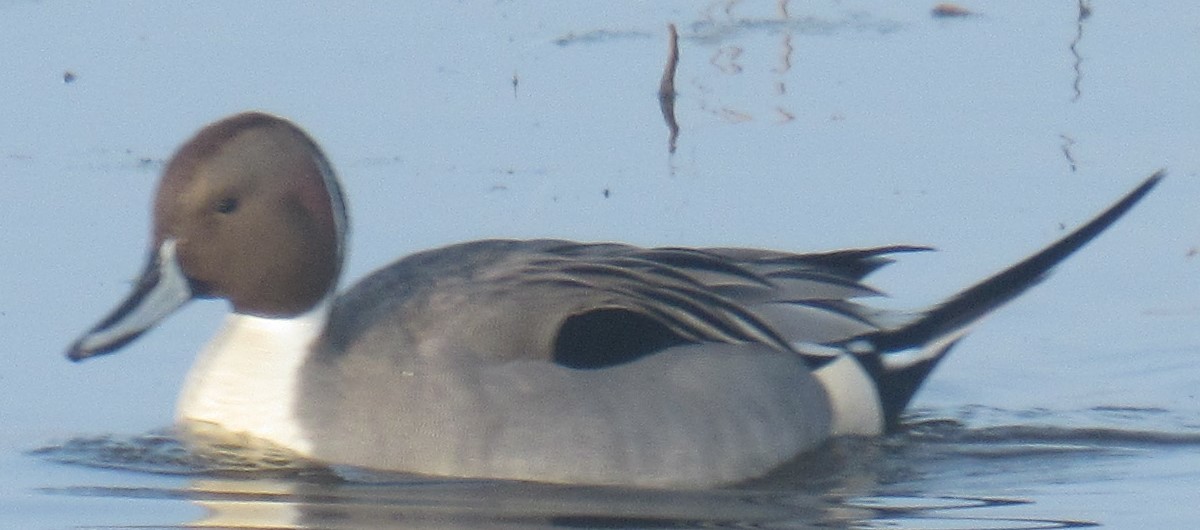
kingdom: Animalia
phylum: Chordata
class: Aves
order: Anseriformes
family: Anatidae
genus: Anas
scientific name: Anas acuta
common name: Northern pintail
